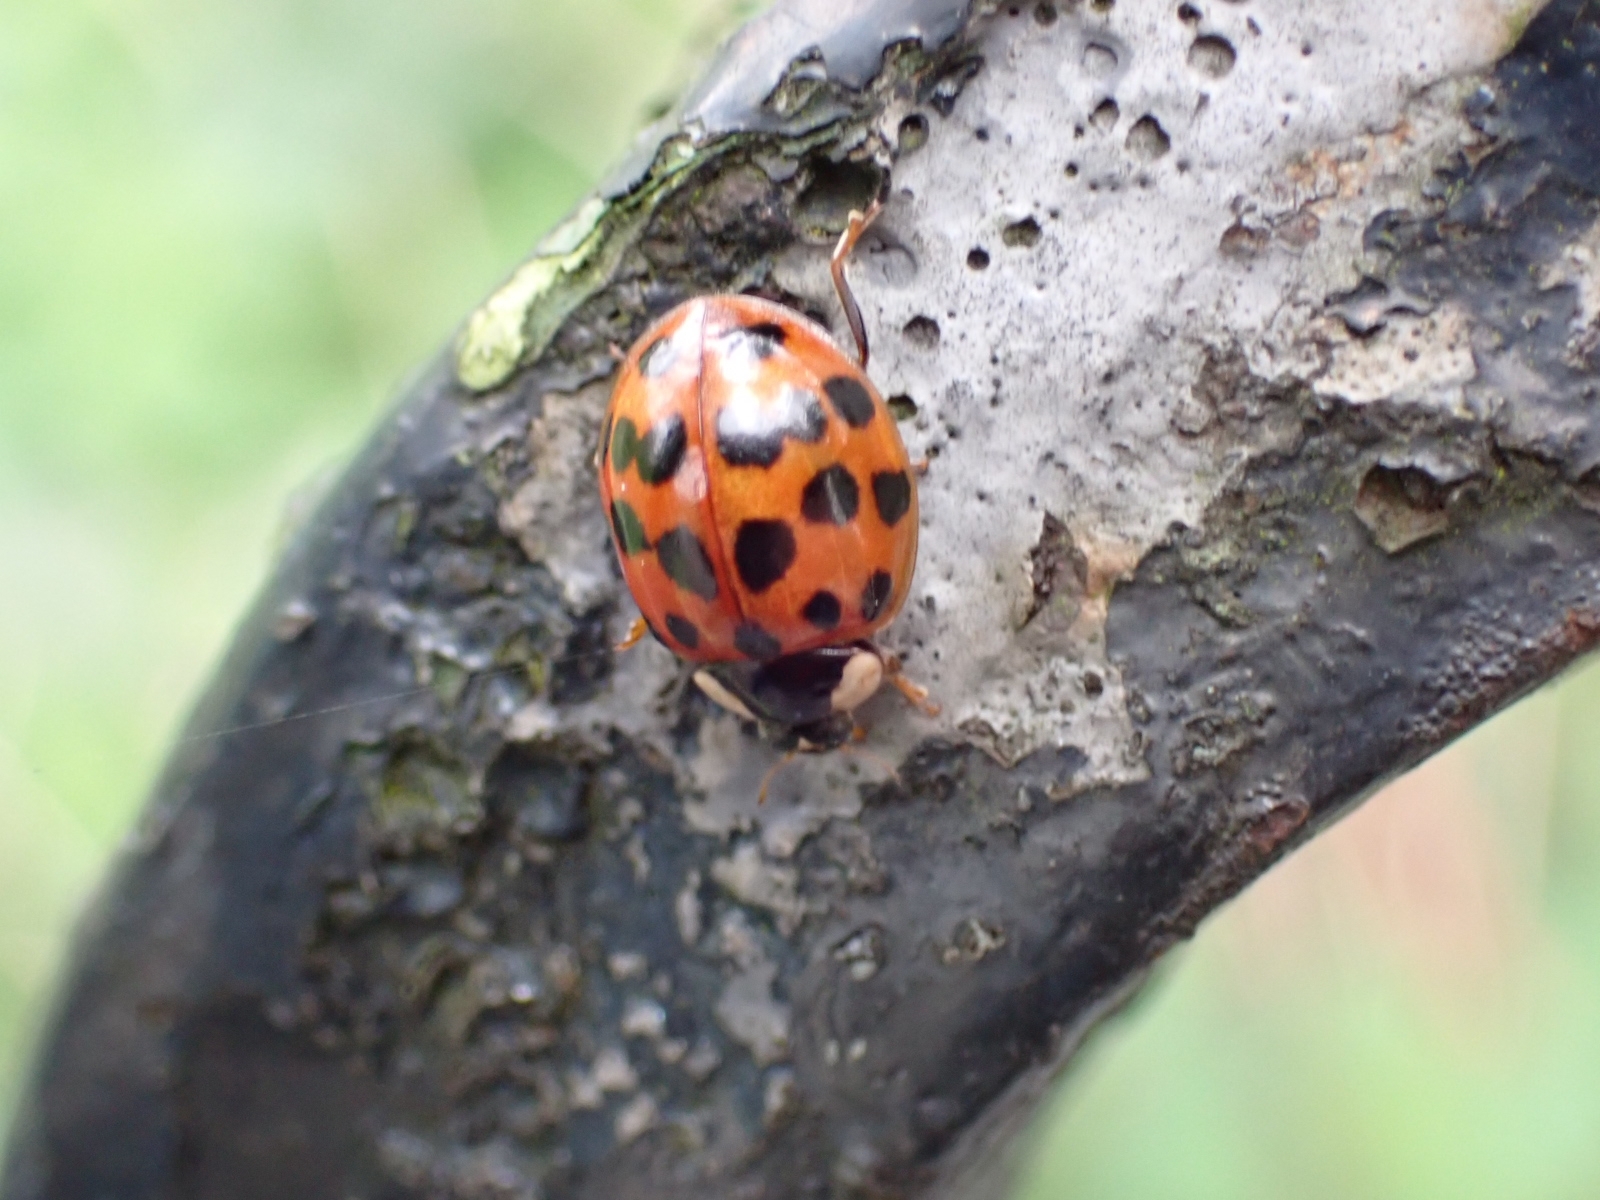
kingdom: Animalia
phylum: Arthropoda
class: Insecta
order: Coleoptera
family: Coccinellidae
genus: Harmonia
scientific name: Harmonia axyridis
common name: Harlequin ladybird
